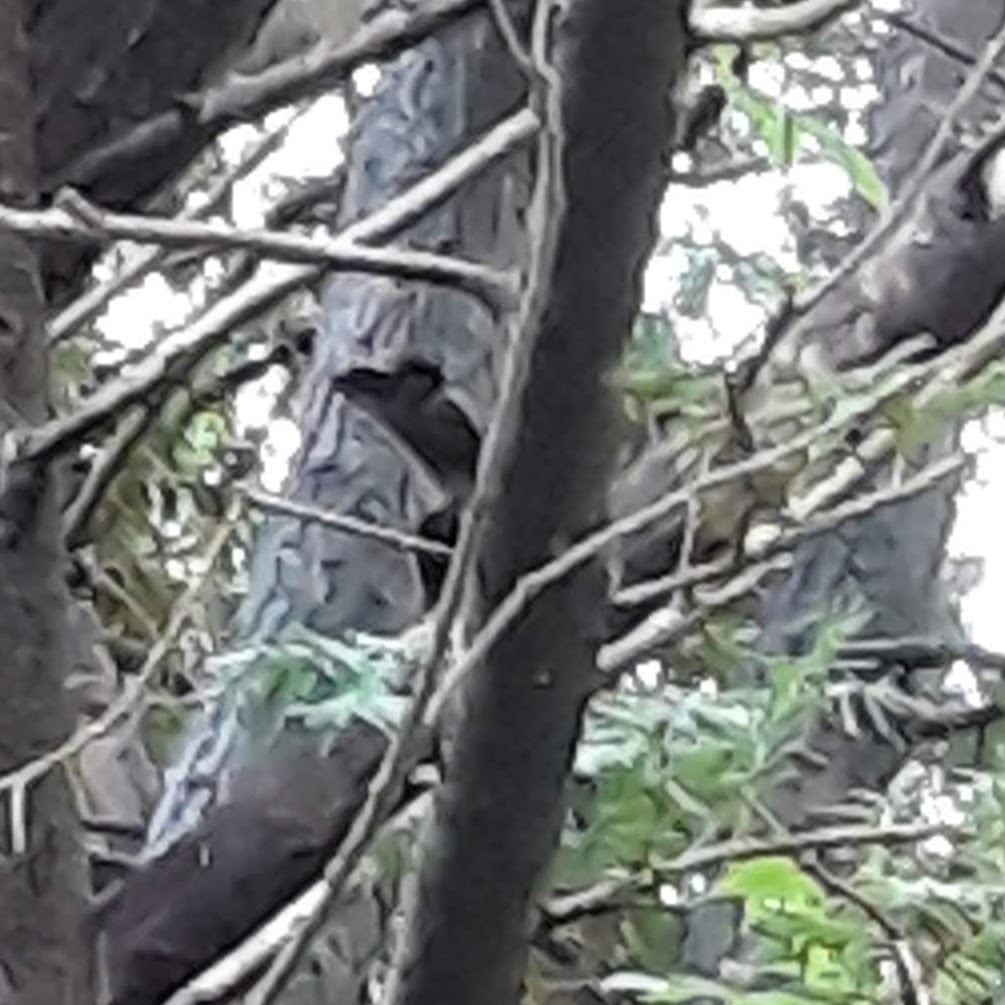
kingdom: Animalia
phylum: Chordata
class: Aves
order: Passeriformes
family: Mimidae
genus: Dumetella
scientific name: Dumetella carolinensis
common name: Gray catbird
